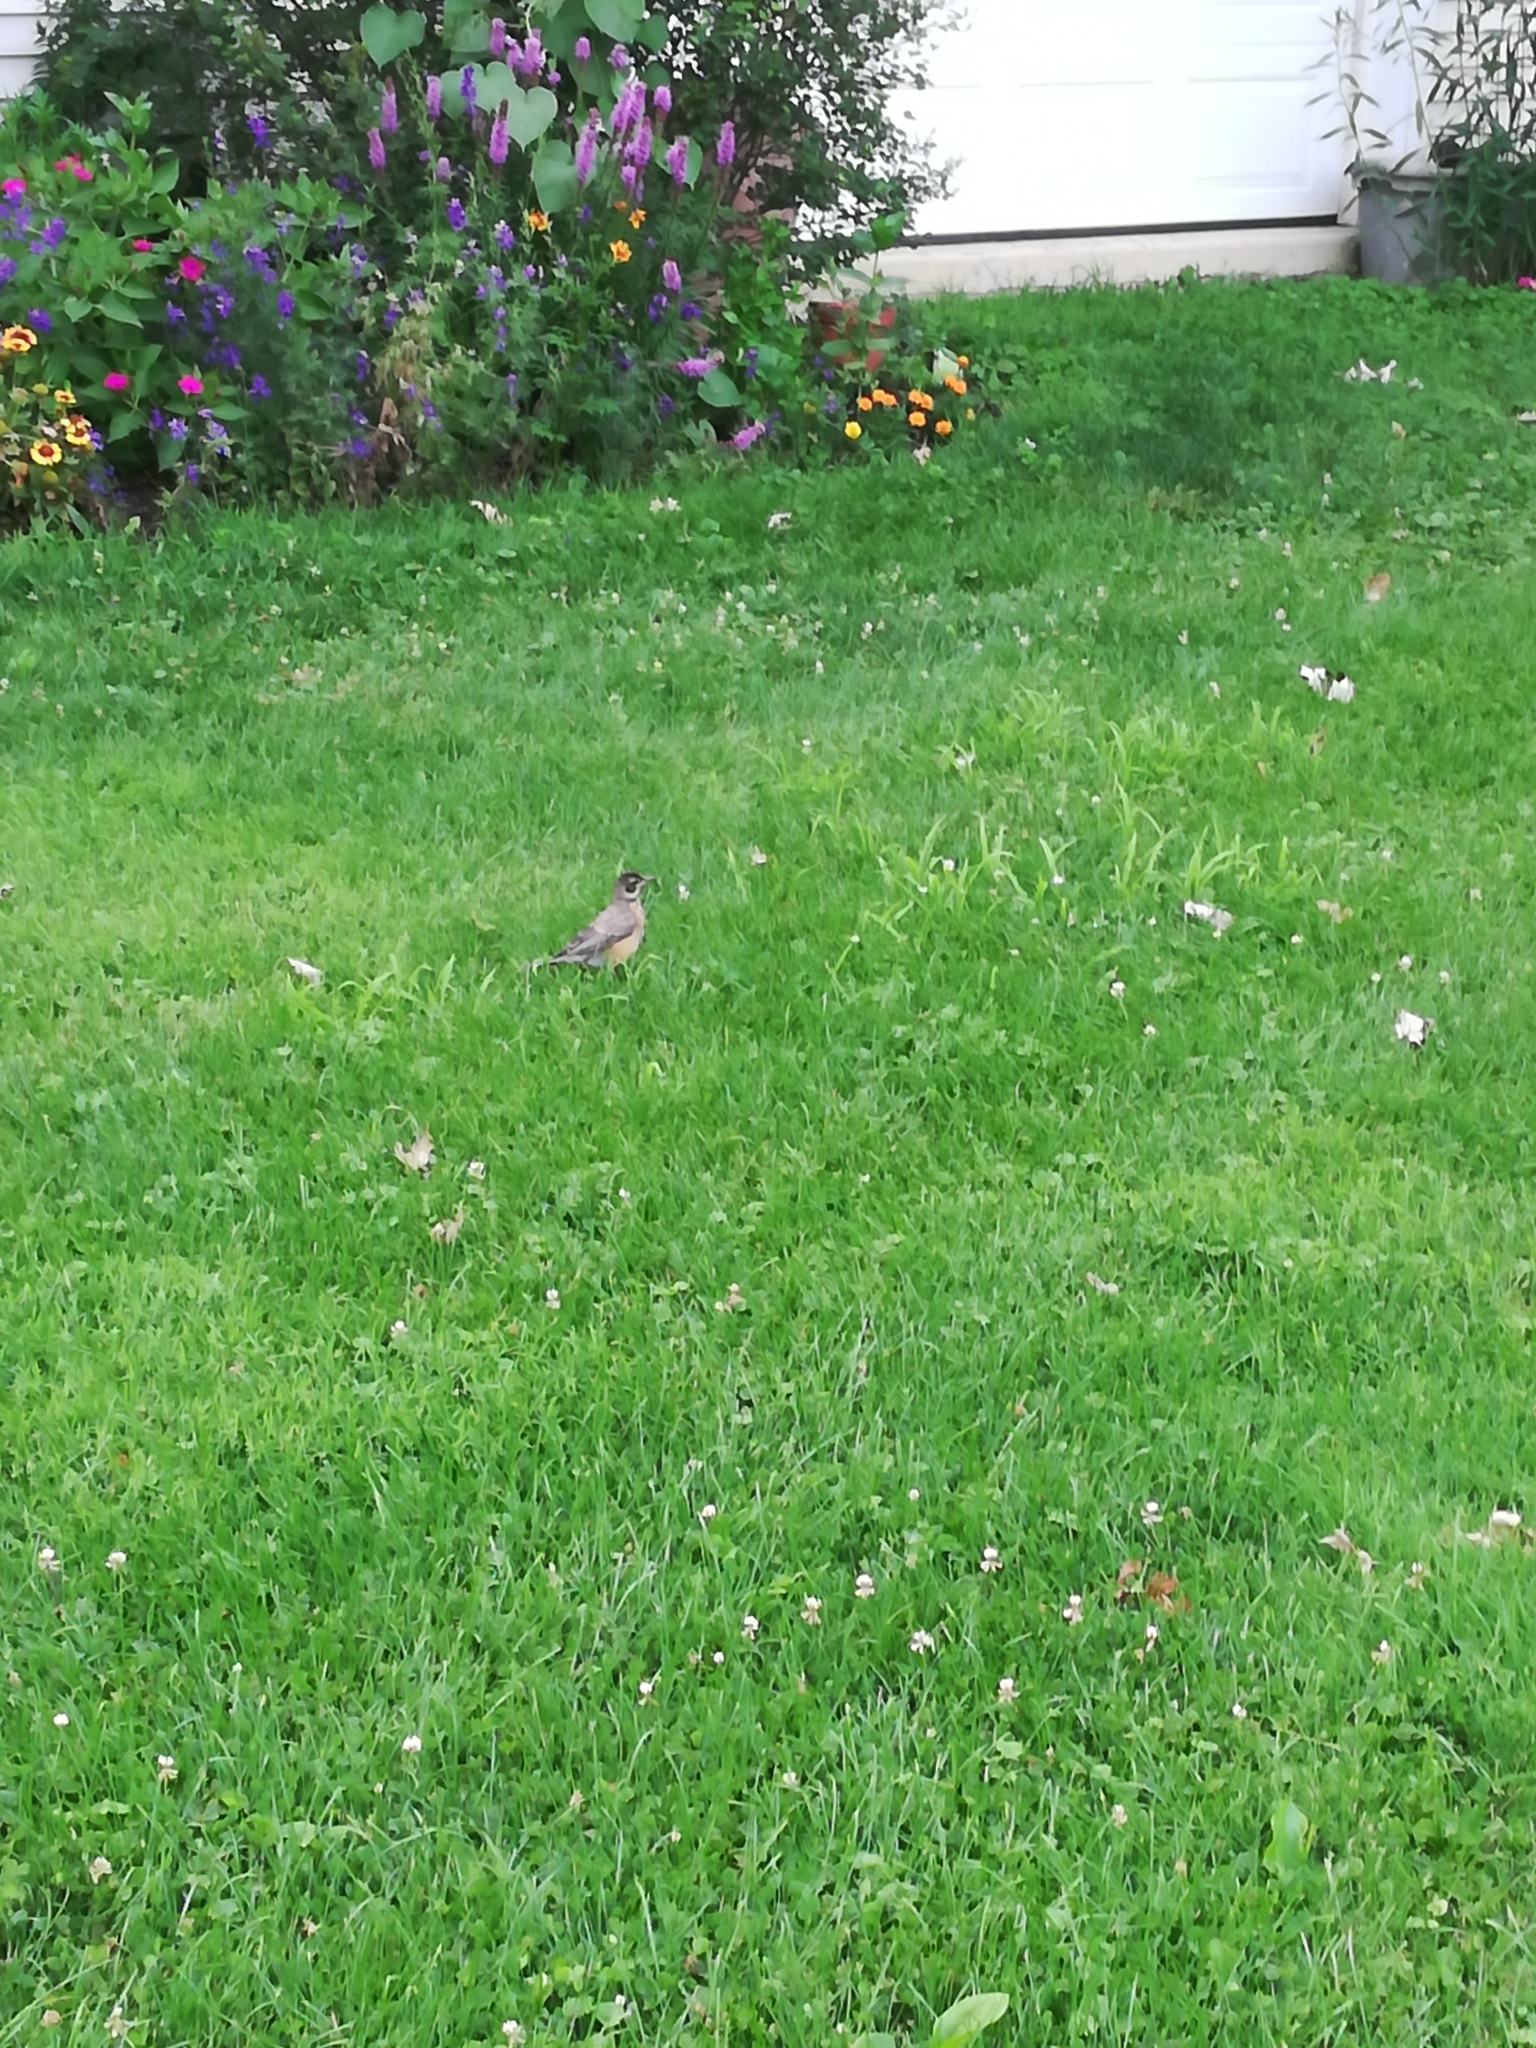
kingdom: Animalia
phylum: Chordata
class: Aves
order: Passeriformes
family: Turdidae
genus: Turdus
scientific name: Turdus migratorius
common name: American robin
